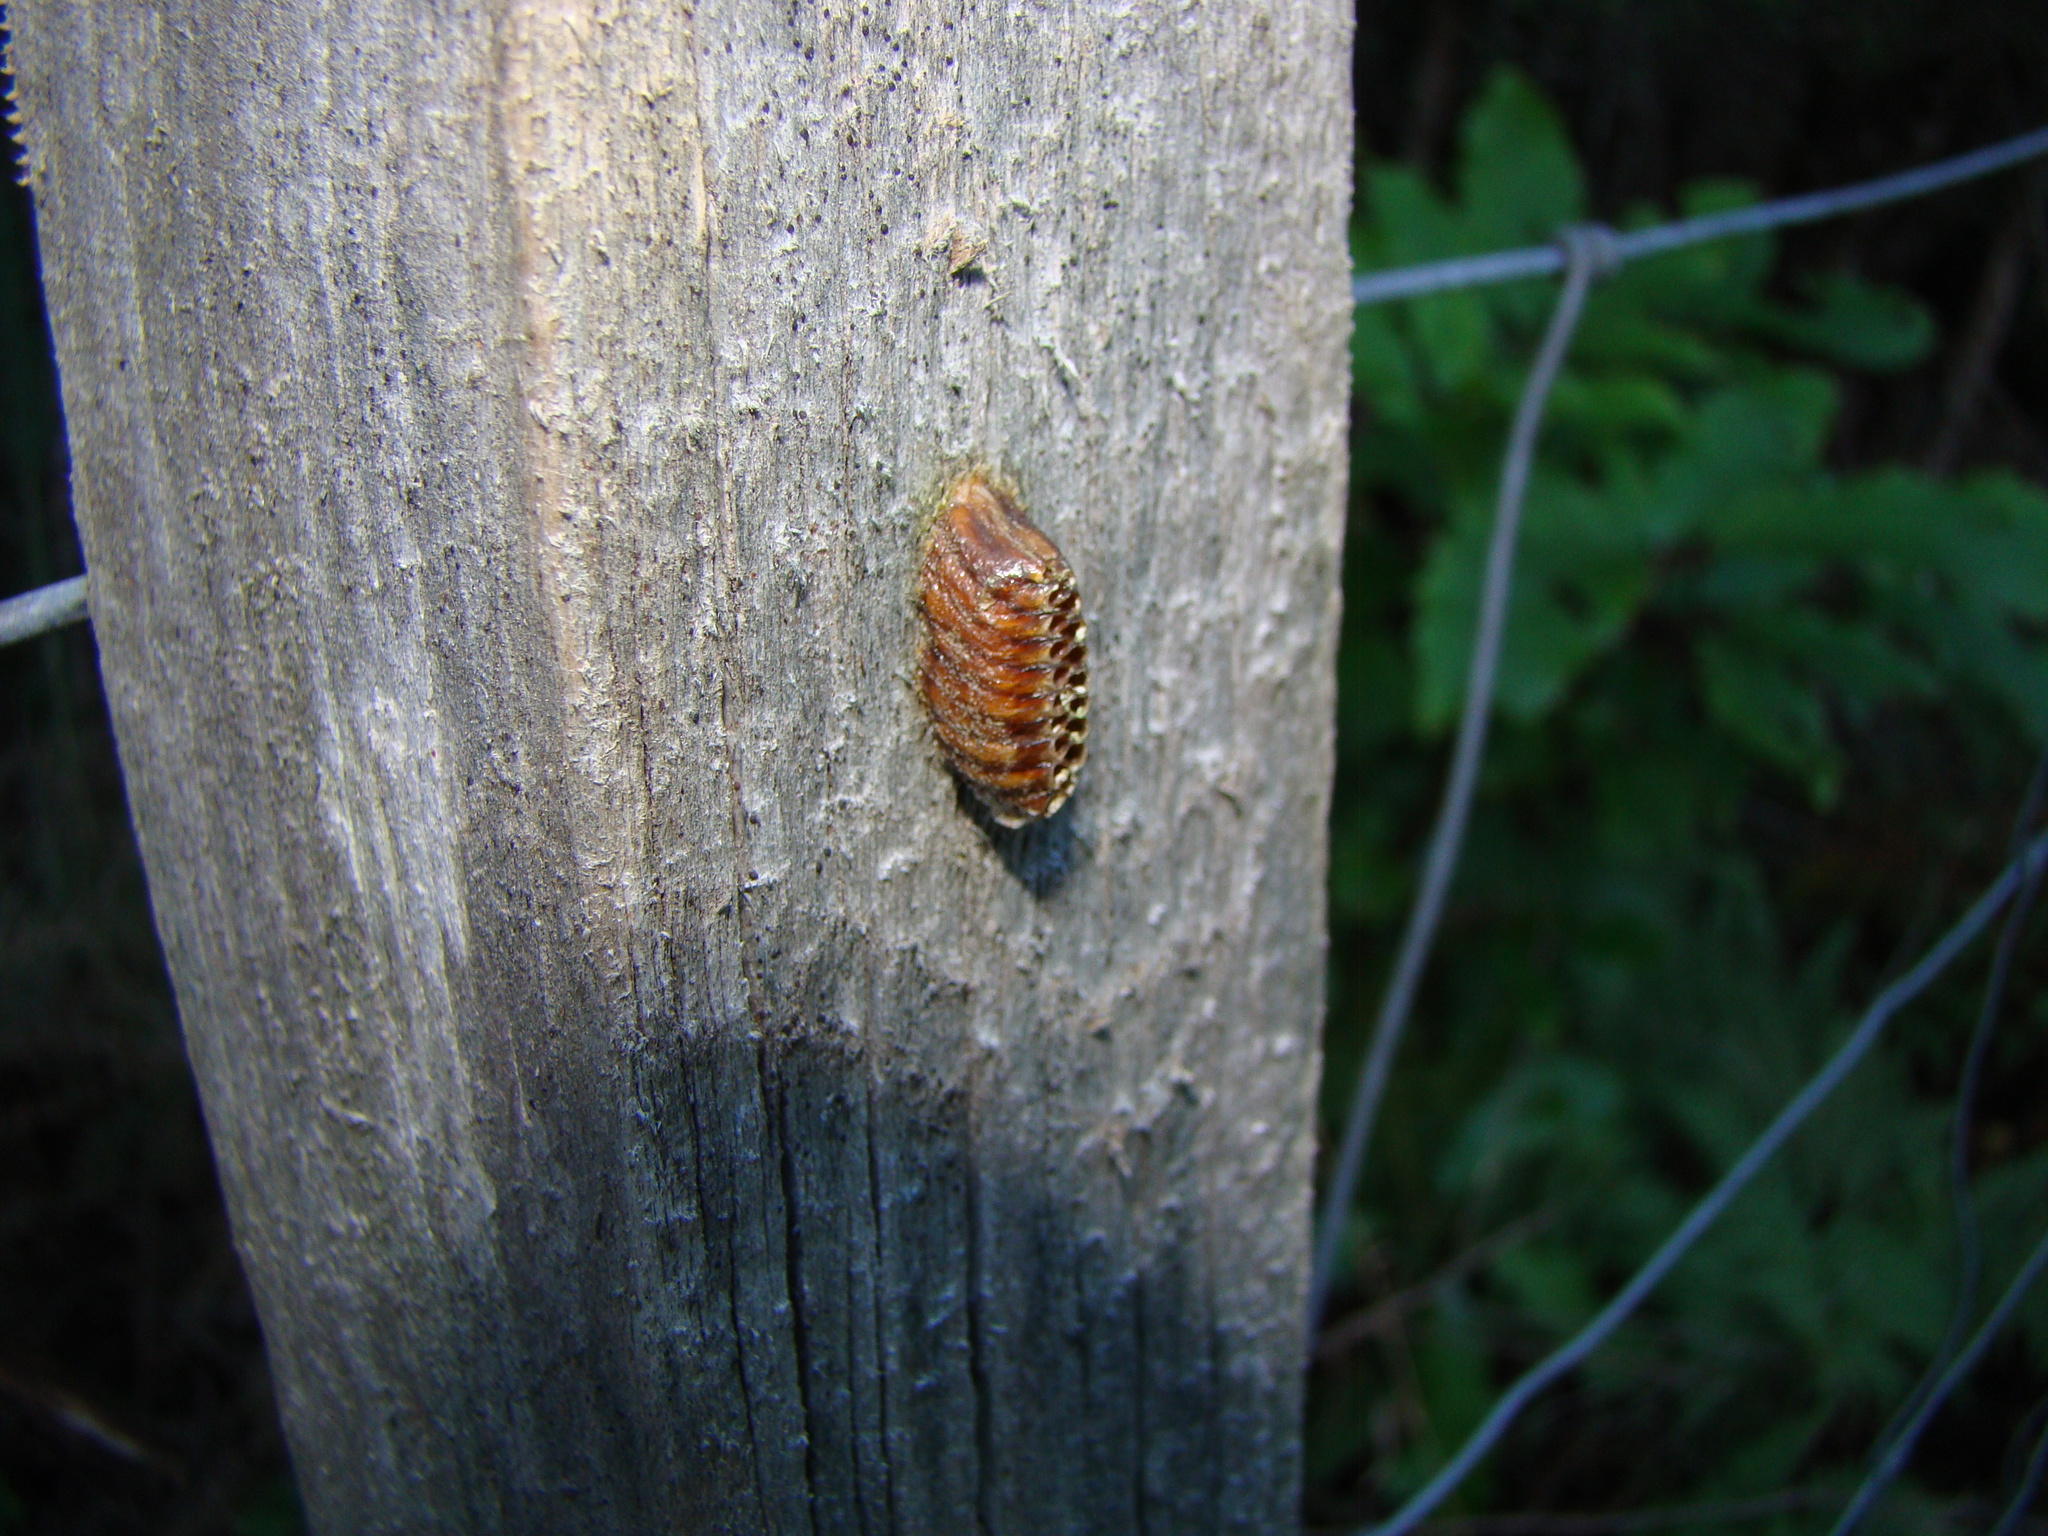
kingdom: Animalia
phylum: Arthropoda
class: Insecta
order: Mantodea
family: Mantidae
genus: Orthodera
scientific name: Orthodera novaezealandiae
